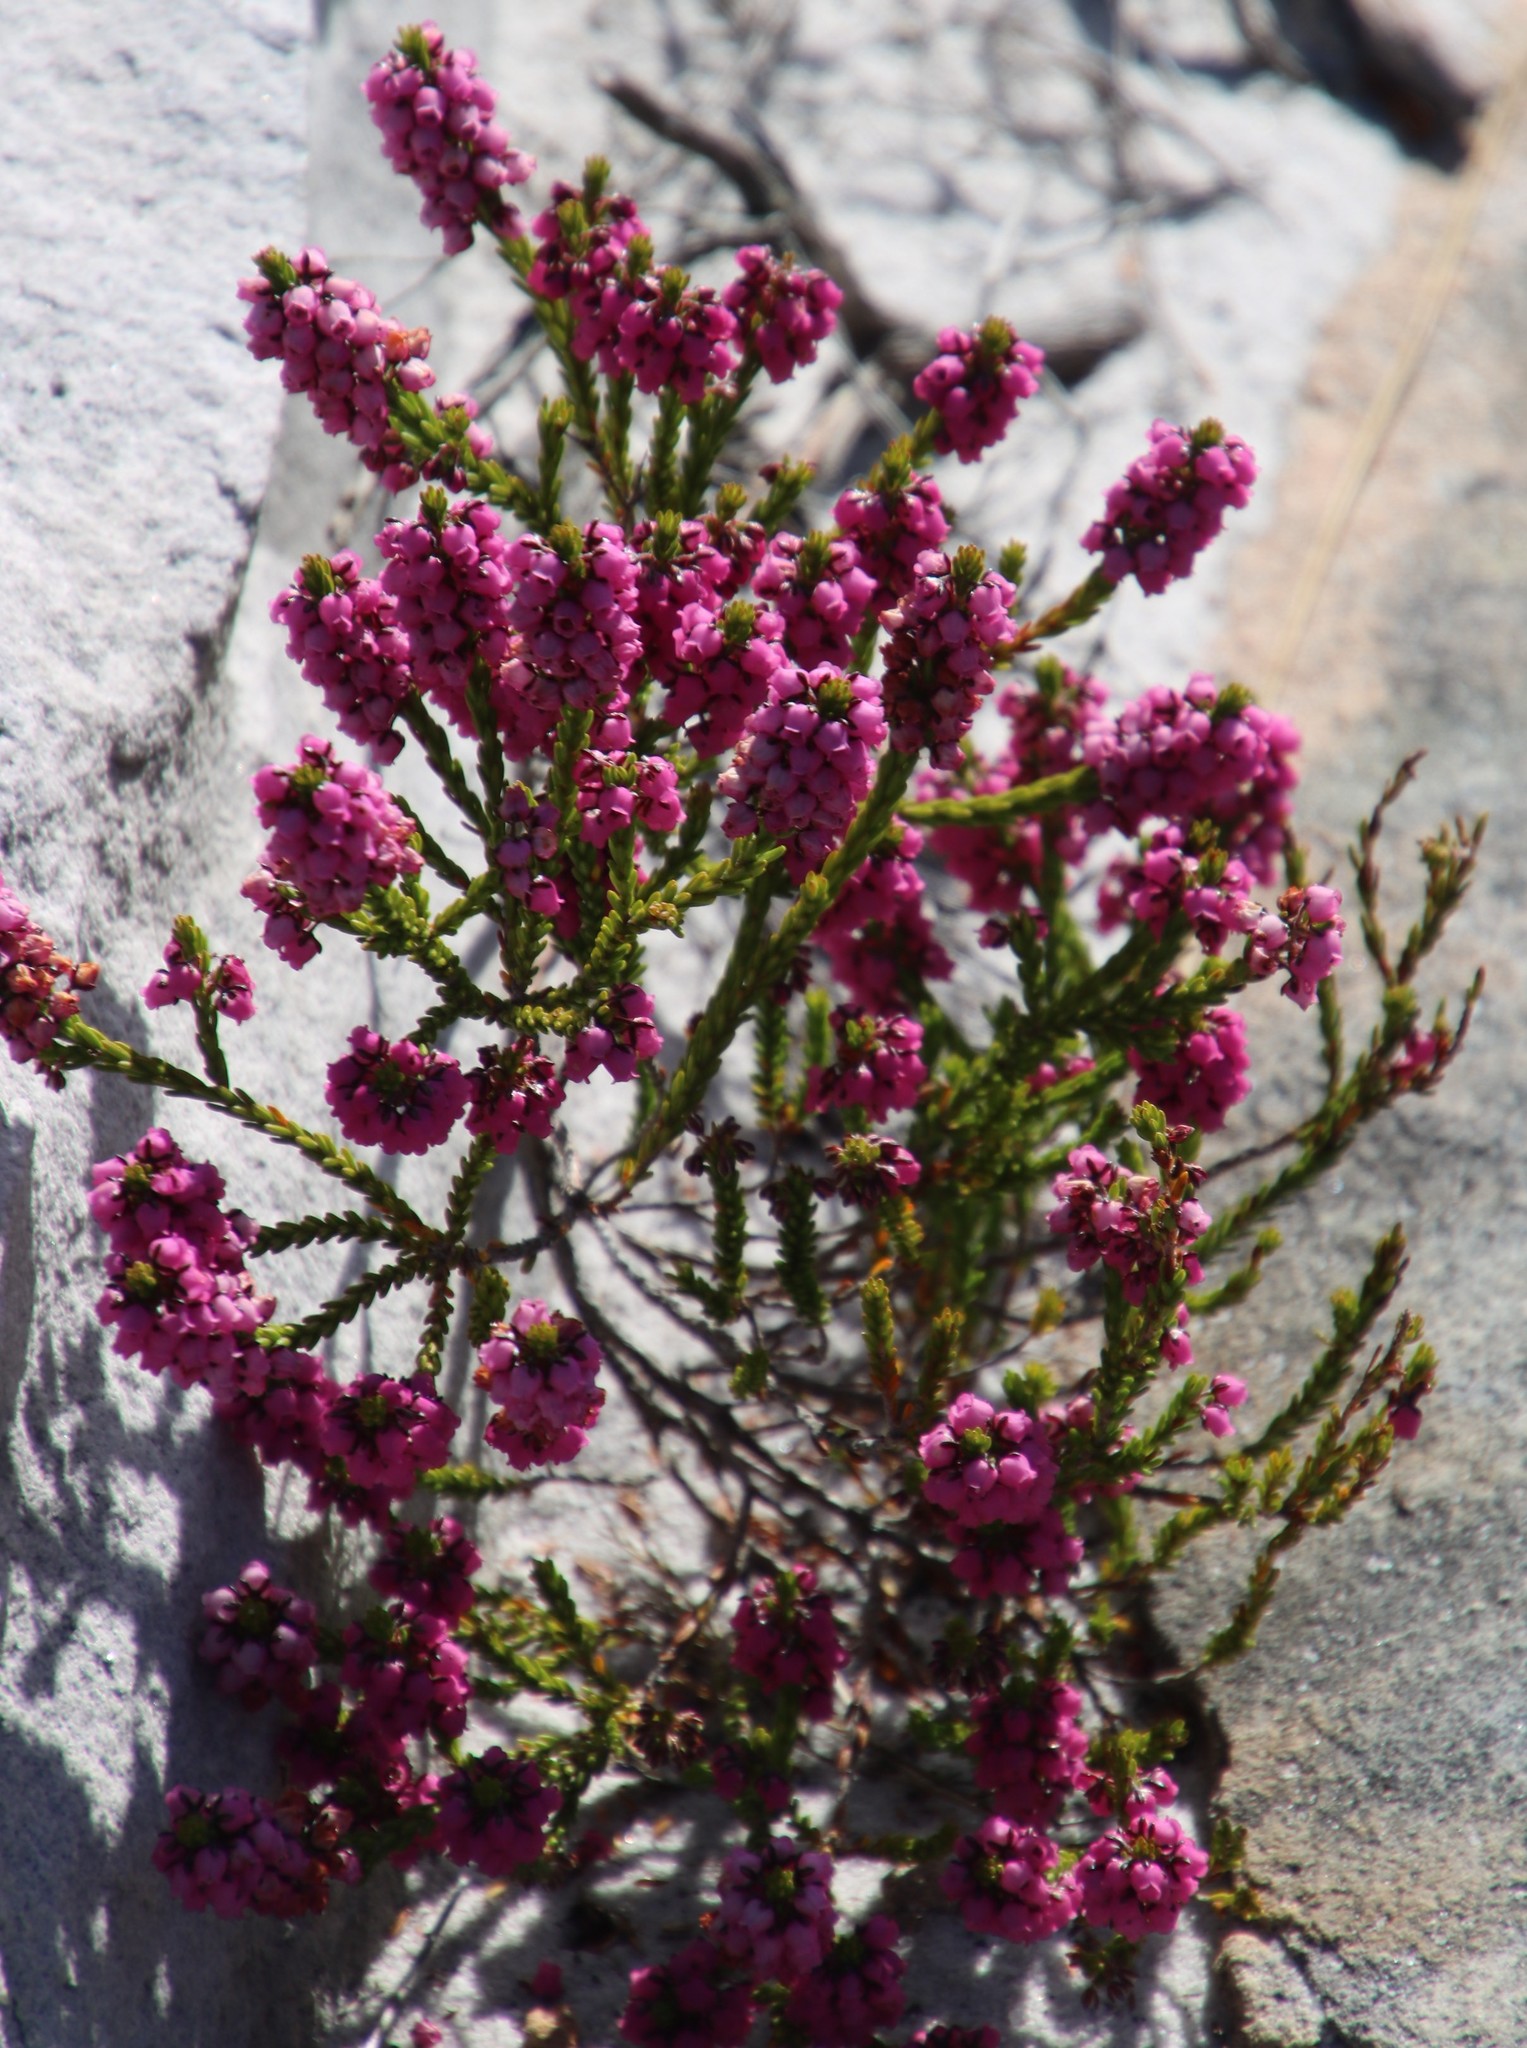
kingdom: Plantae
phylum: Tracheophyta
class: Magnoliopsida
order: Ericales
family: Ericaceae
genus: Erica
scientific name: Erica pulchella
